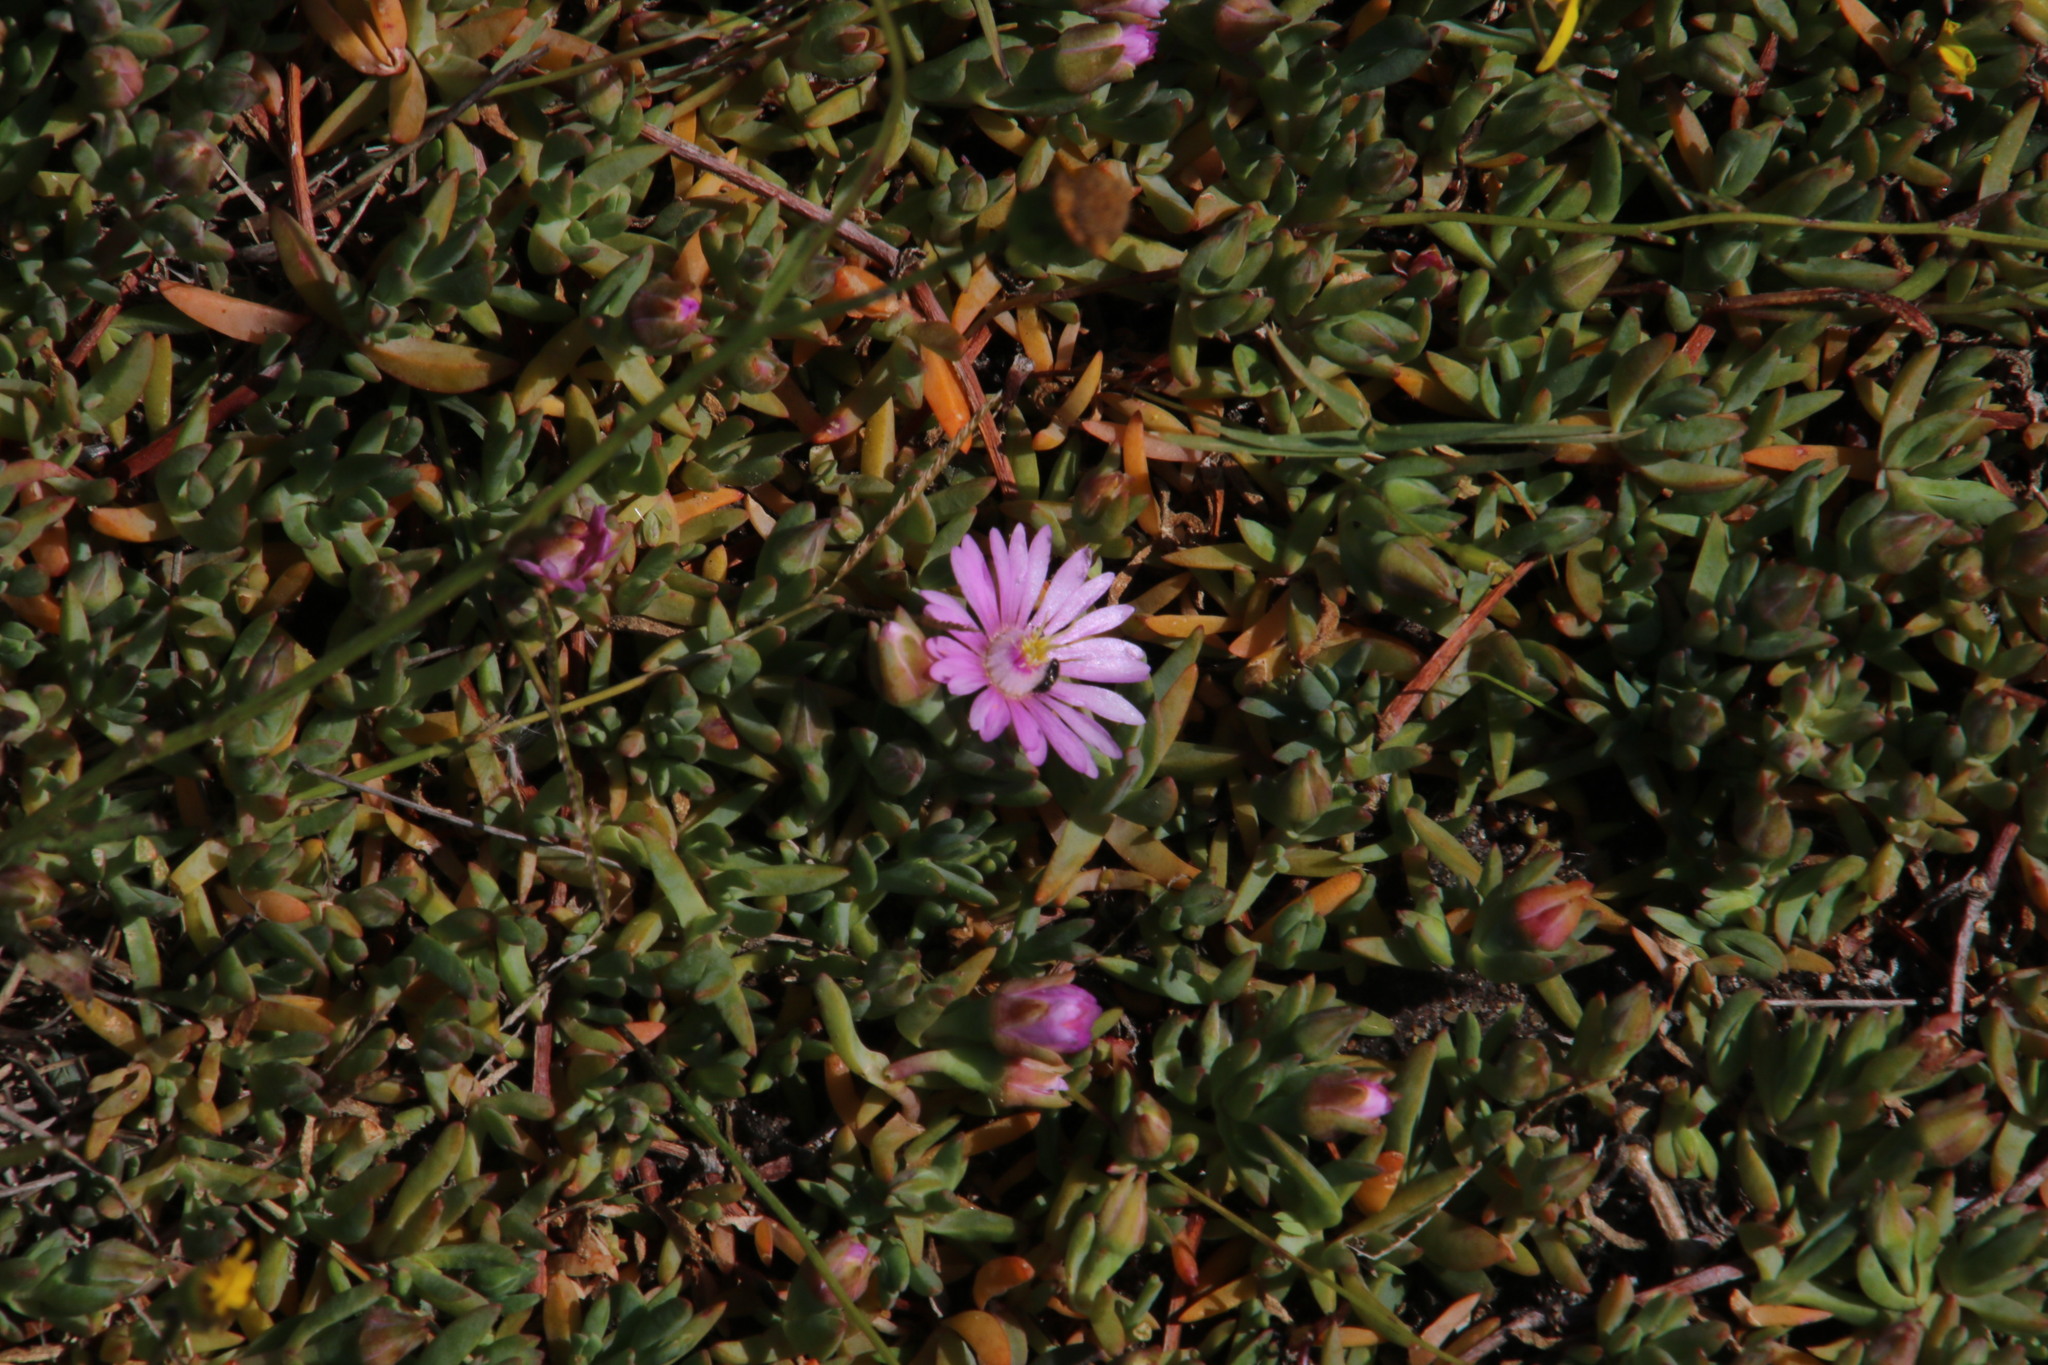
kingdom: Plantae
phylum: Tracheophyta
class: Magnoliopsida
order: Caryophyllales
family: Aizoaceae
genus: Lampranthus
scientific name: Lampranthus debilis
